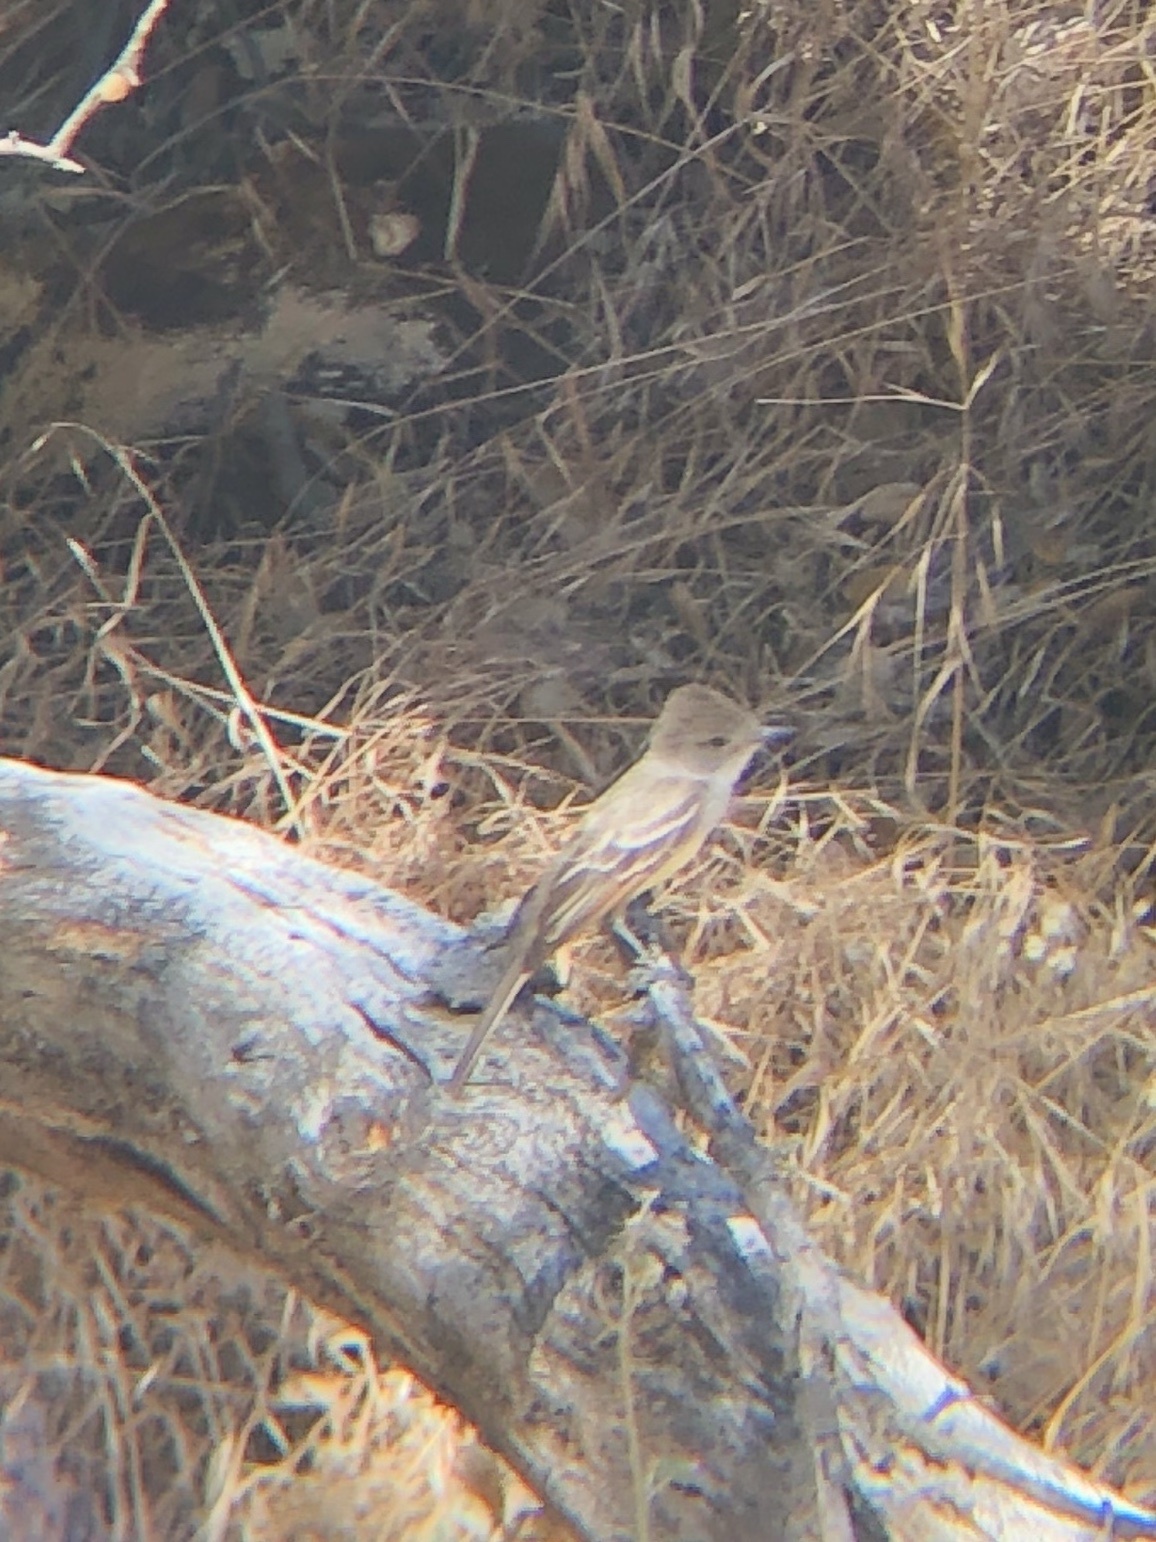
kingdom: Animalia
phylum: Chordata
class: Aves
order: Passeriformes
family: Tyrannidae
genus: Myiarchus
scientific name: Myiarchus cinerascens
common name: Ash-throated flycatcher
